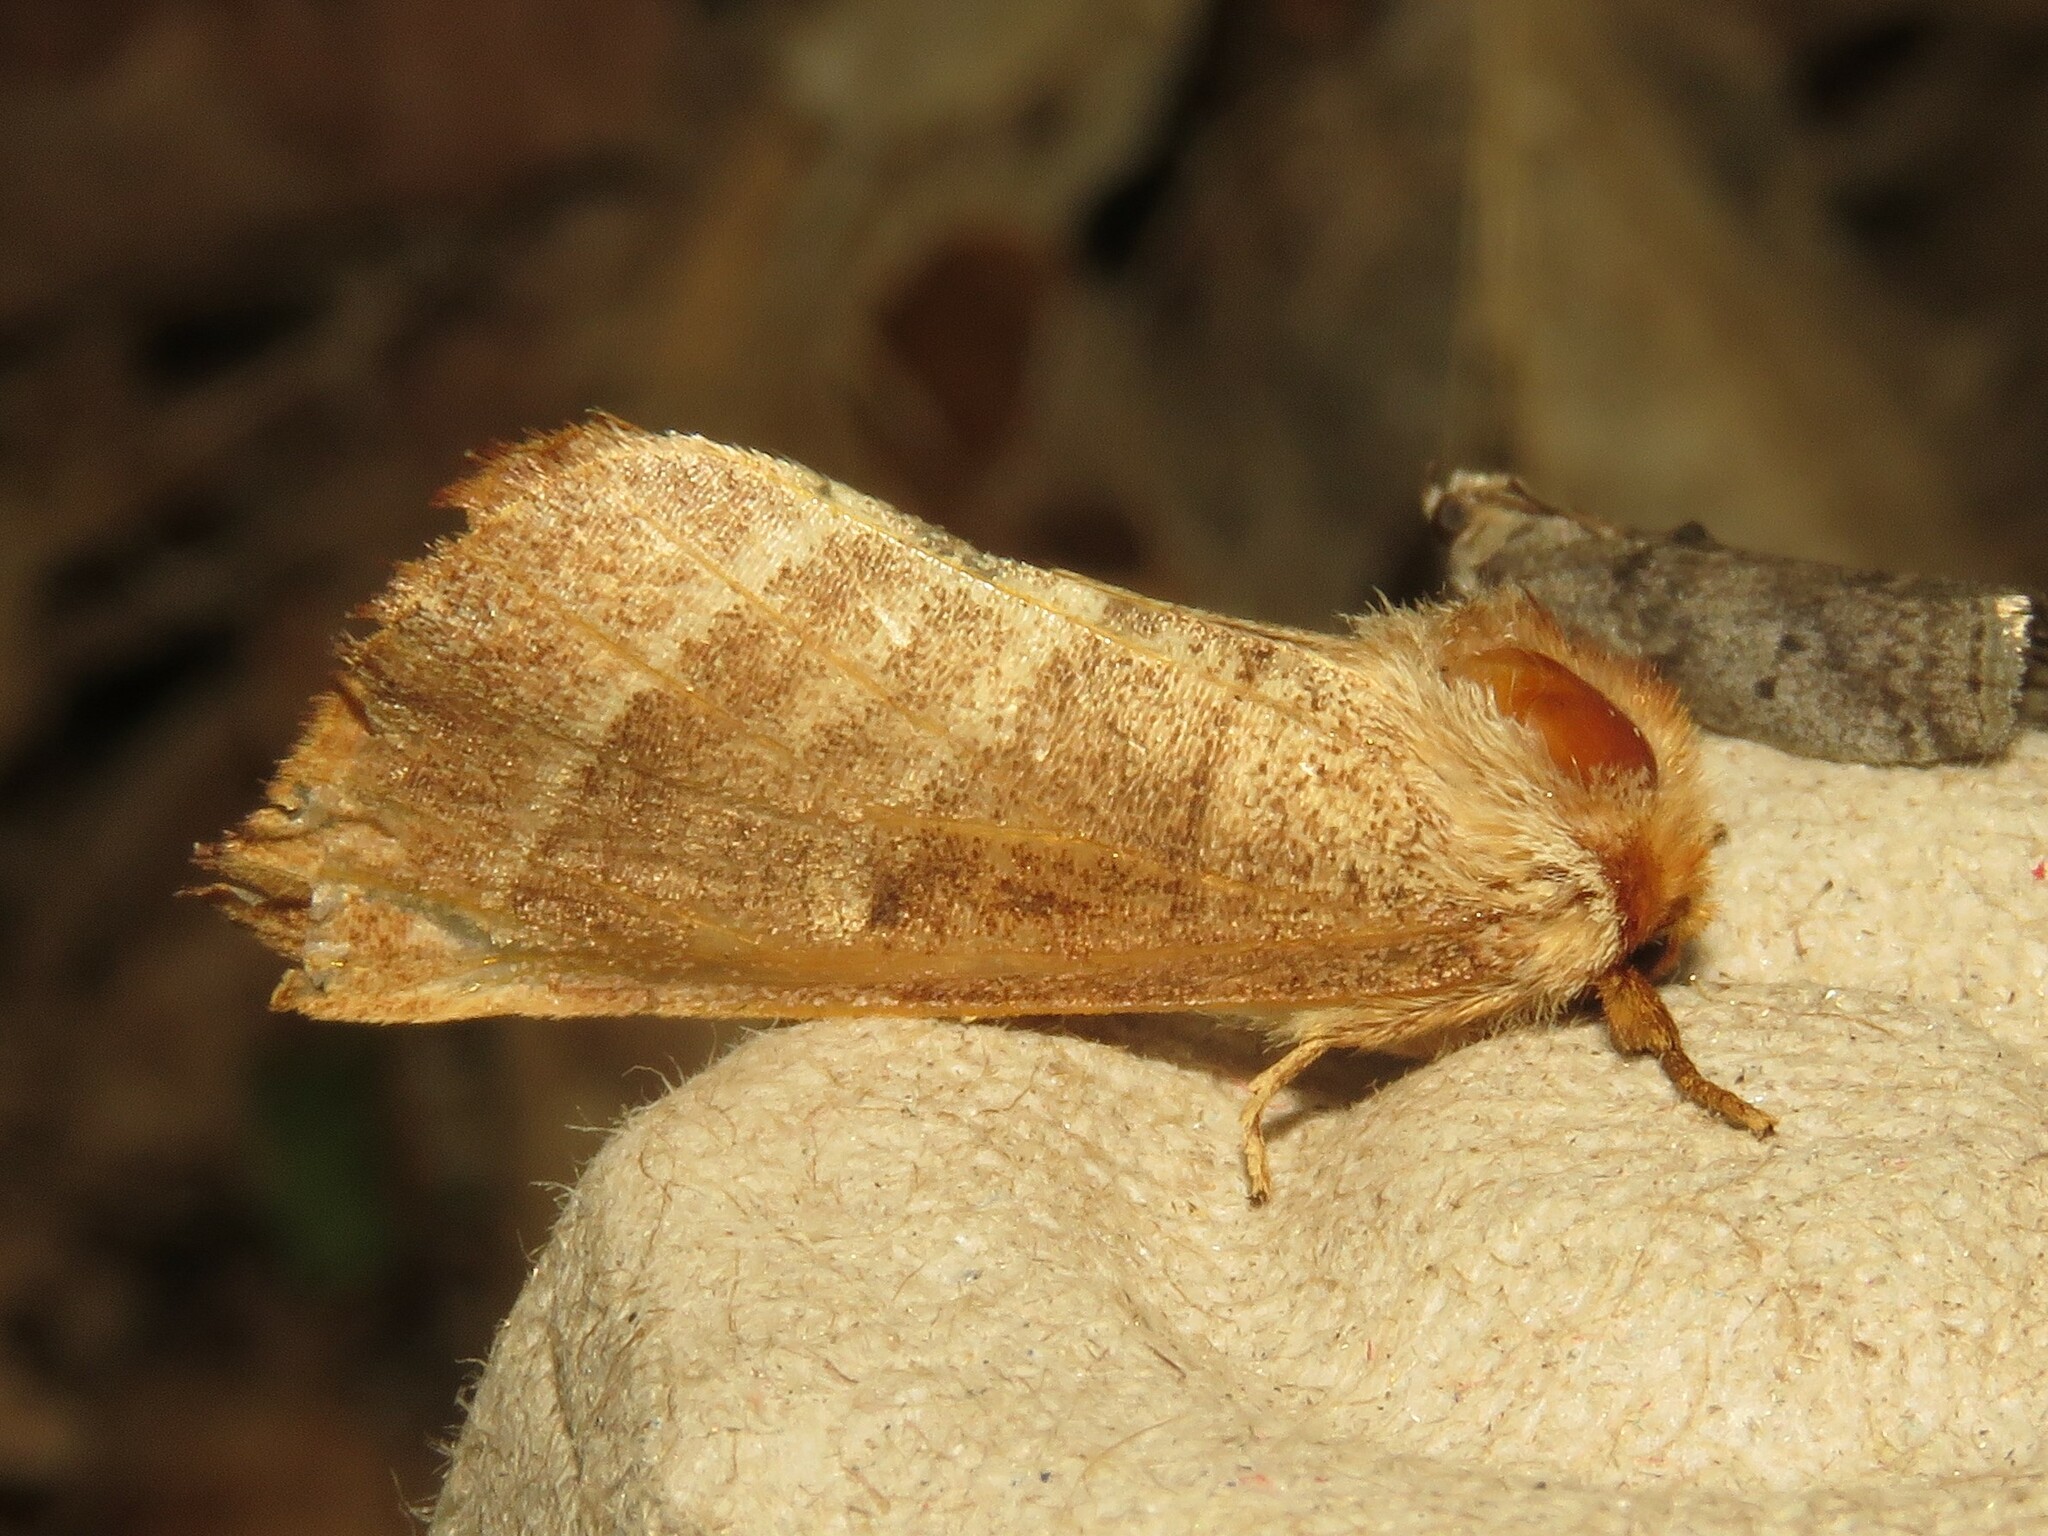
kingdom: Animalia
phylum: Arthropoda
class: Insecta
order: Lepidoptera
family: Notodontidae
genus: Datana
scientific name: Datana contracta
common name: Contracted datana
